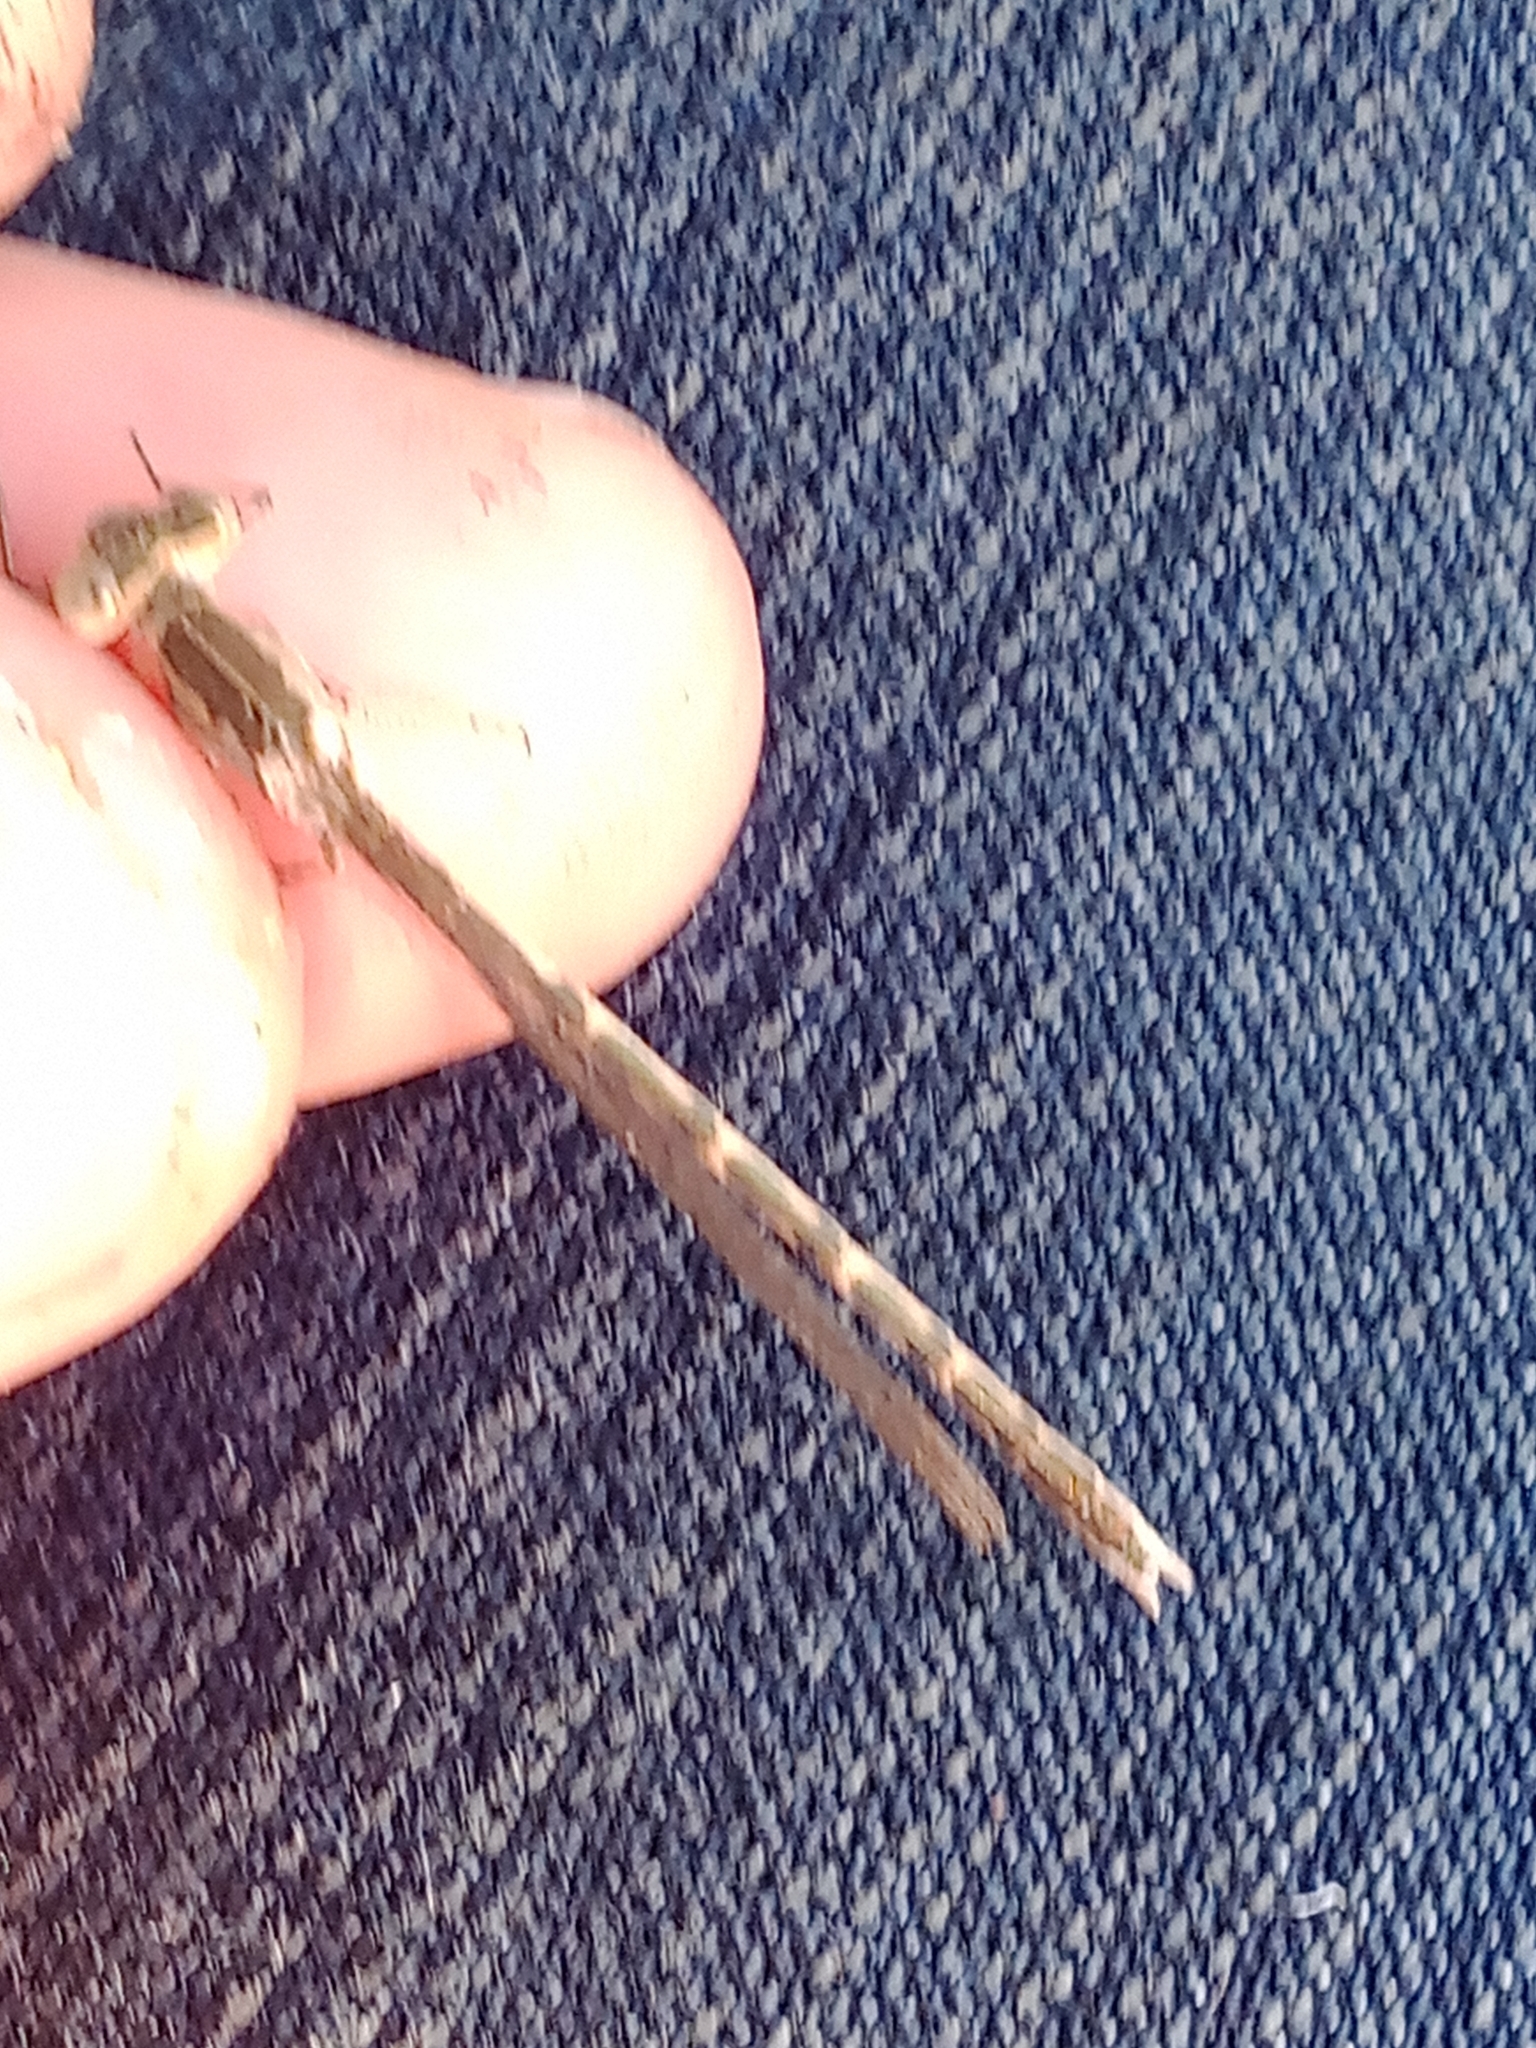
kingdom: Animalia
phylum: Arthropoda
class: Insecta
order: Odonata
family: Lestidae
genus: Sympecma
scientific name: Sympecma paedisca
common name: Siberian winter damsel
